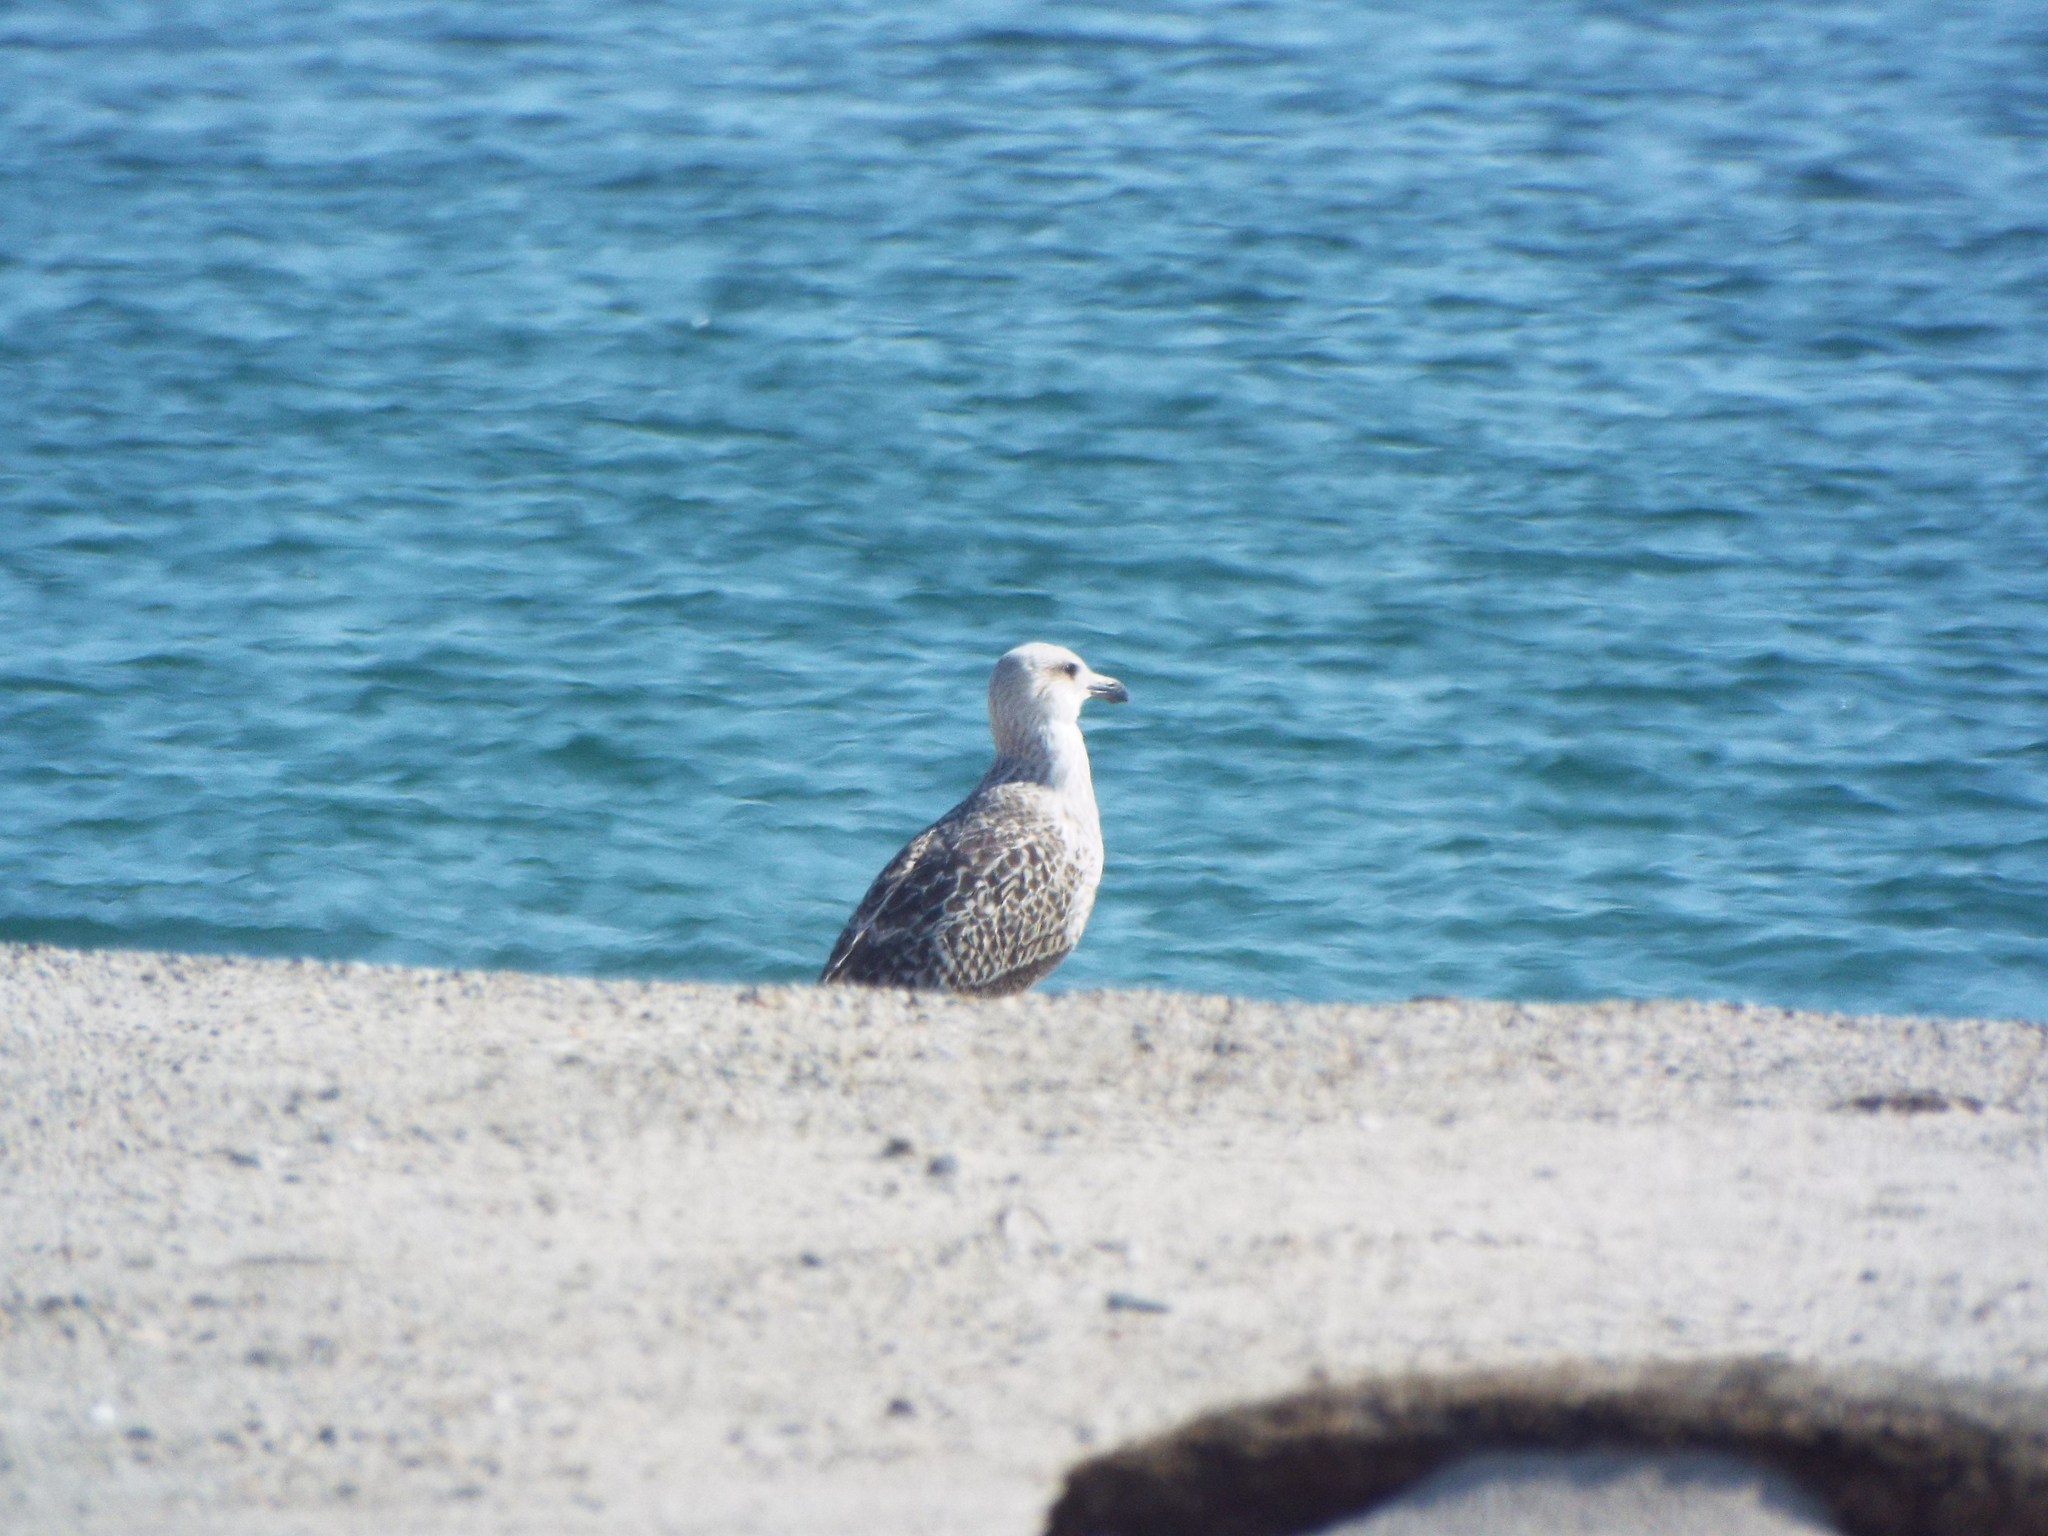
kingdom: Animalia
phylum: Chordata
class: Aves
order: Charadriiformes
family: Laridae
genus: Larus
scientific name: Larus marinus
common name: Great black-backed gull
